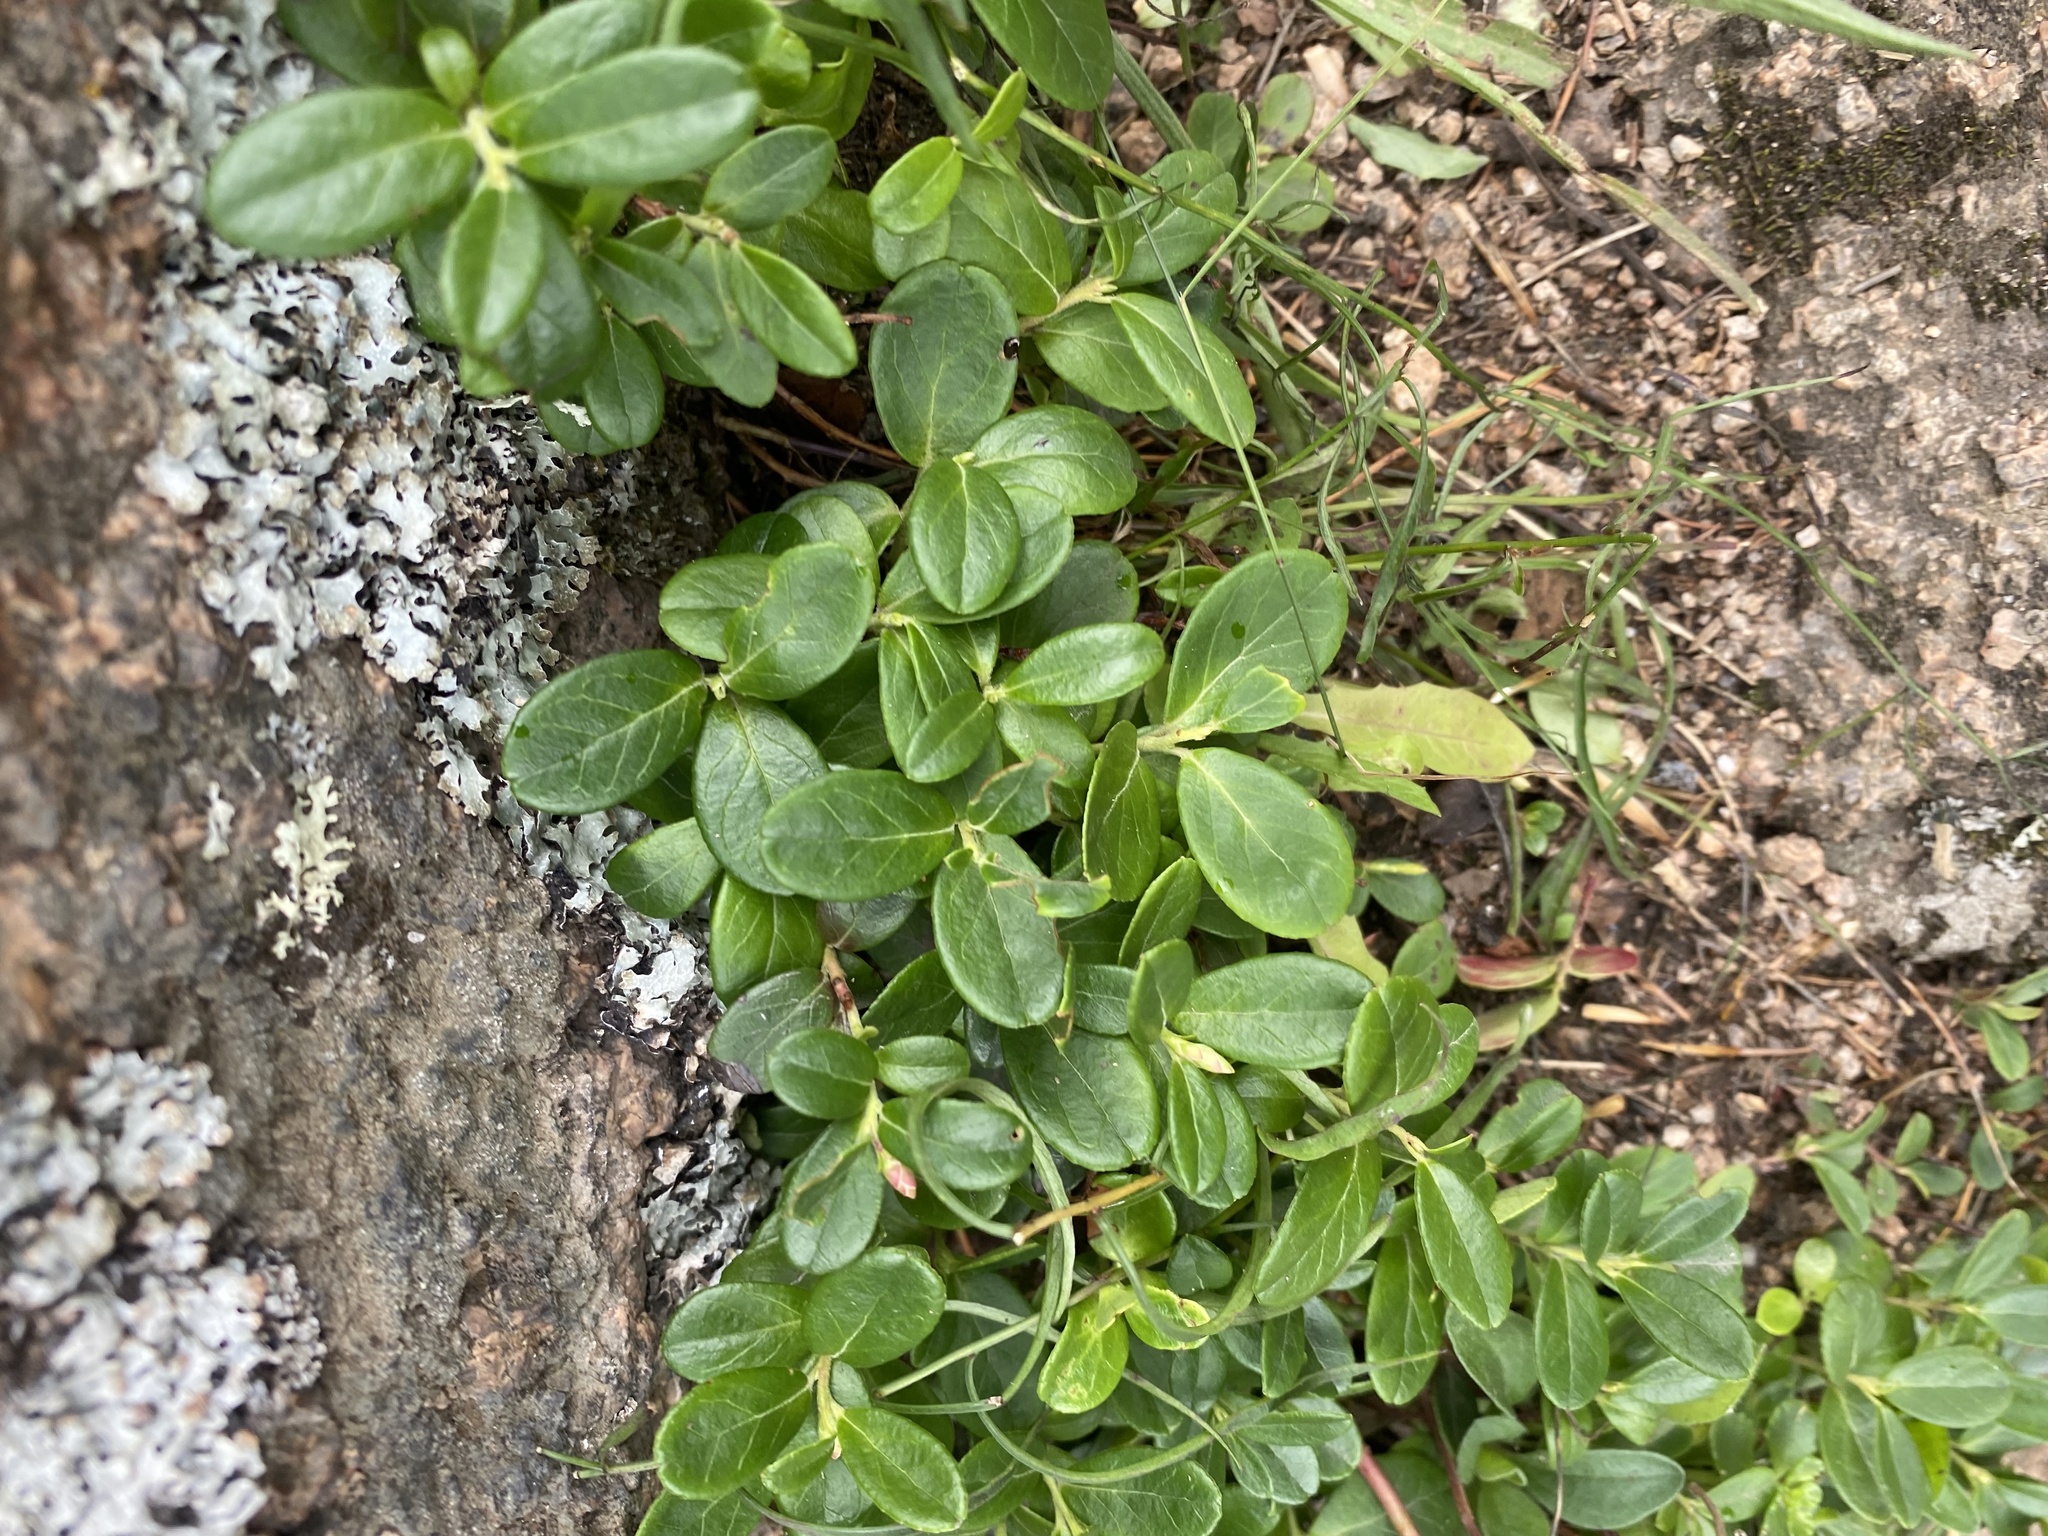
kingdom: Plantae
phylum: Tracheophyta
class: Magnoliopsida
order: Ericales
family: Ericaceae
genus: Vaccinium
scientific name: Vaccinium vitis-idaea
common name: Cowberry
